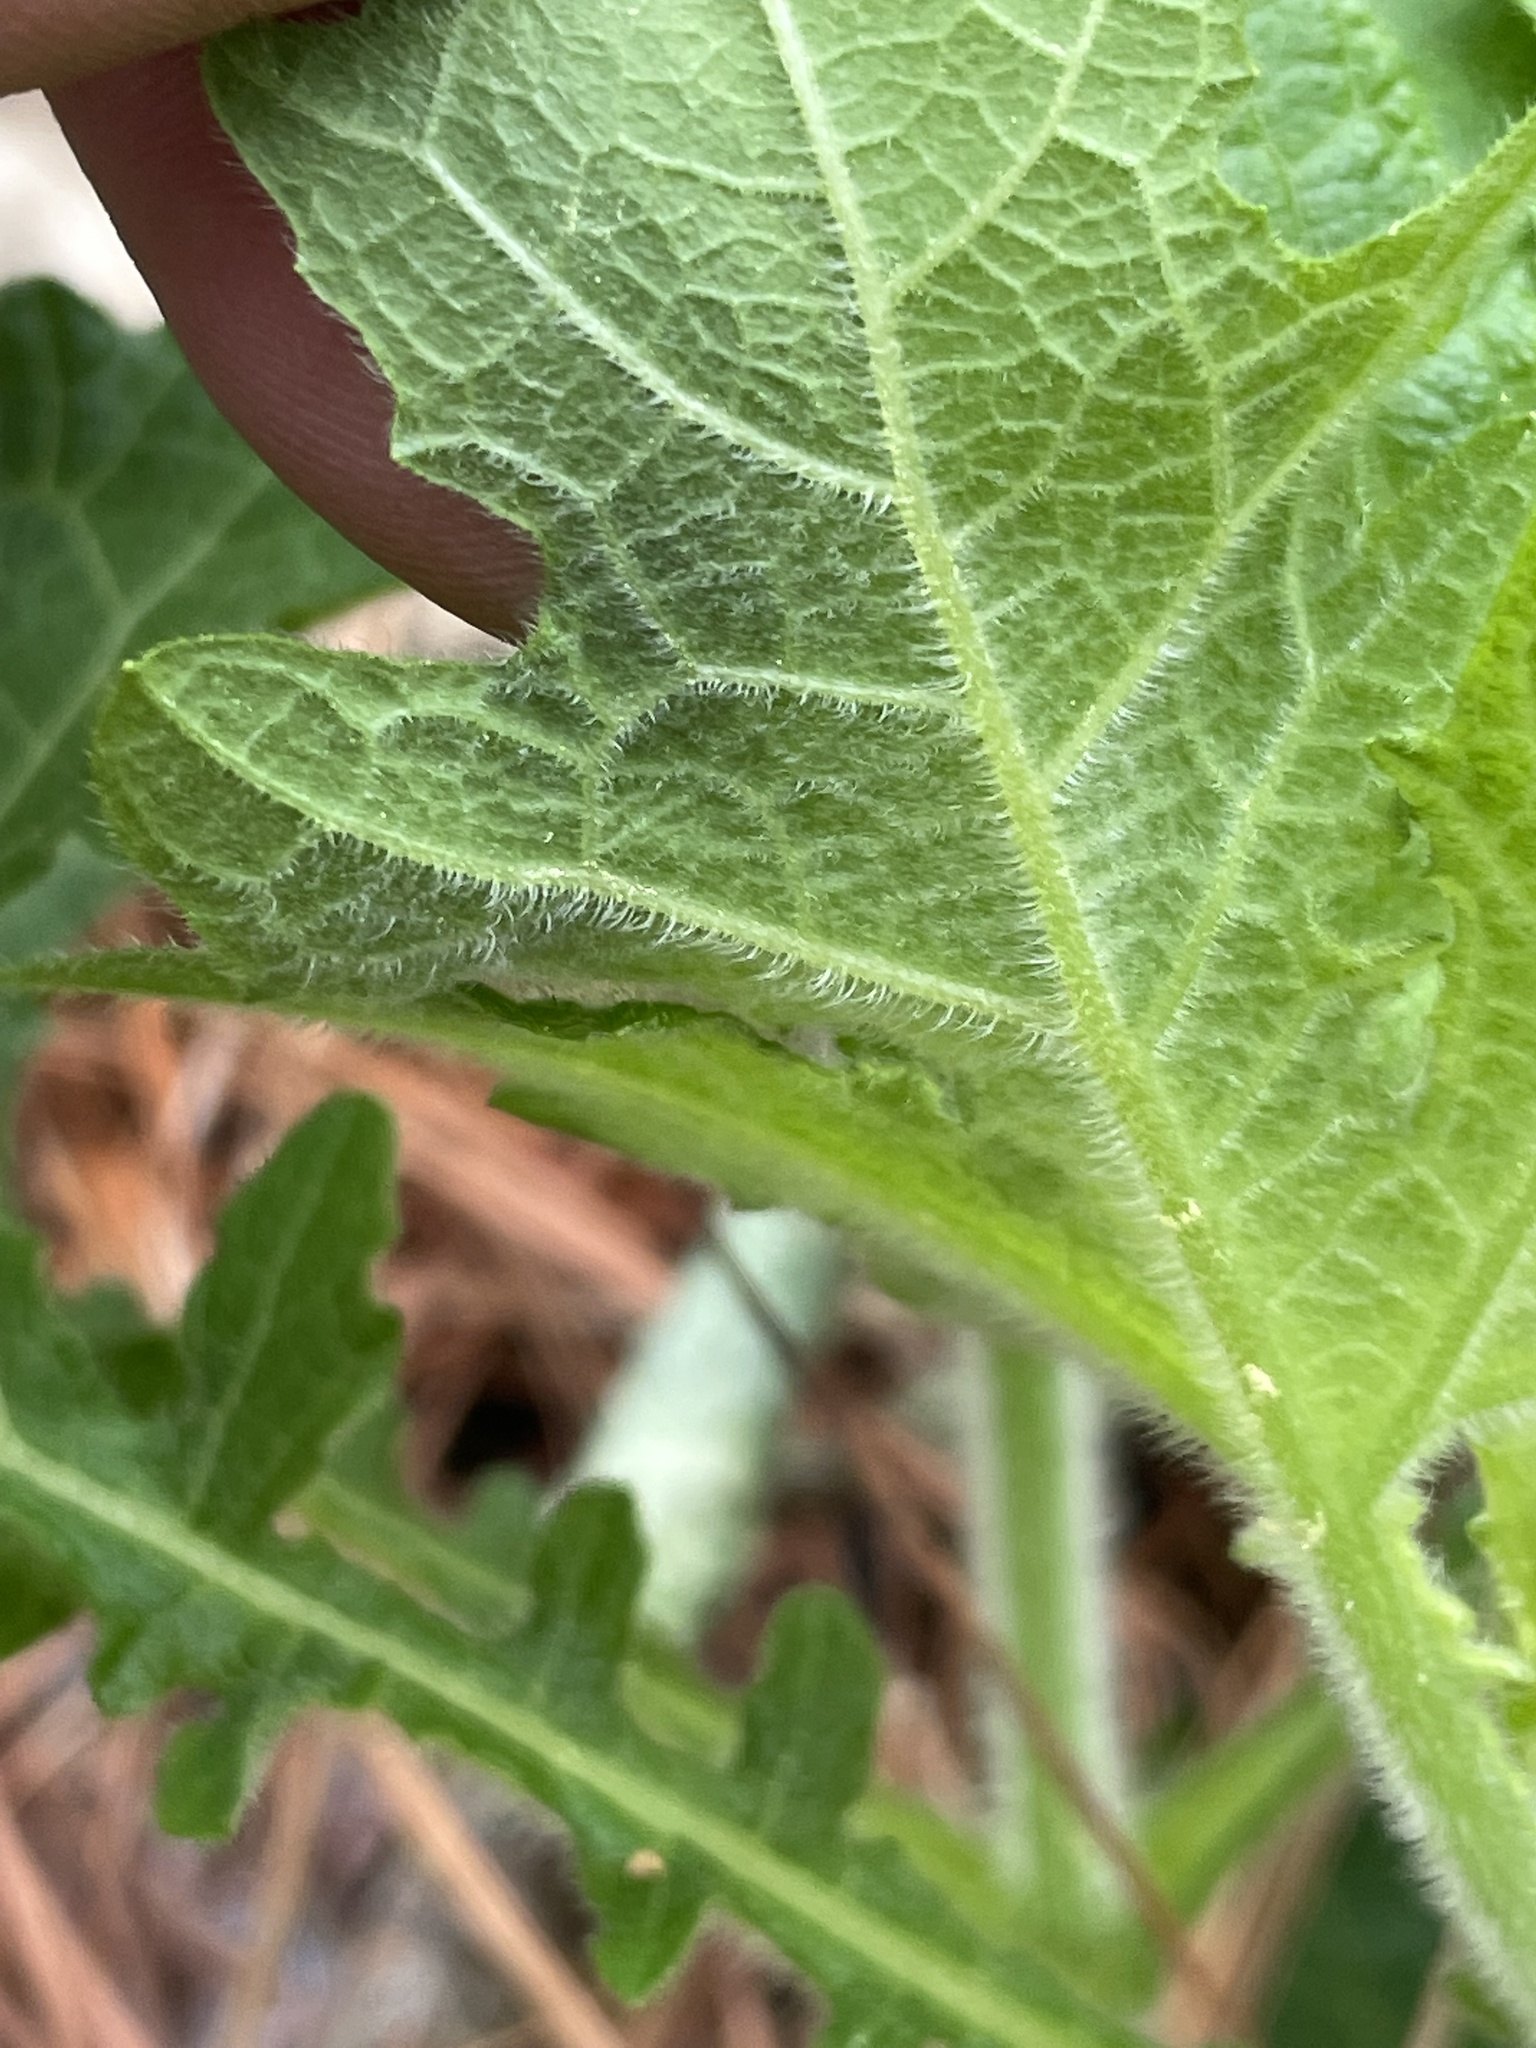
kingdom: Plantae
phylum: Tracheophyta
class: Magnoliopsida
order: Asterales
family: Asteraceae
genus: Smallanthus
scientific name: Smallanthus uvedalia
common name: Bear's-foot
